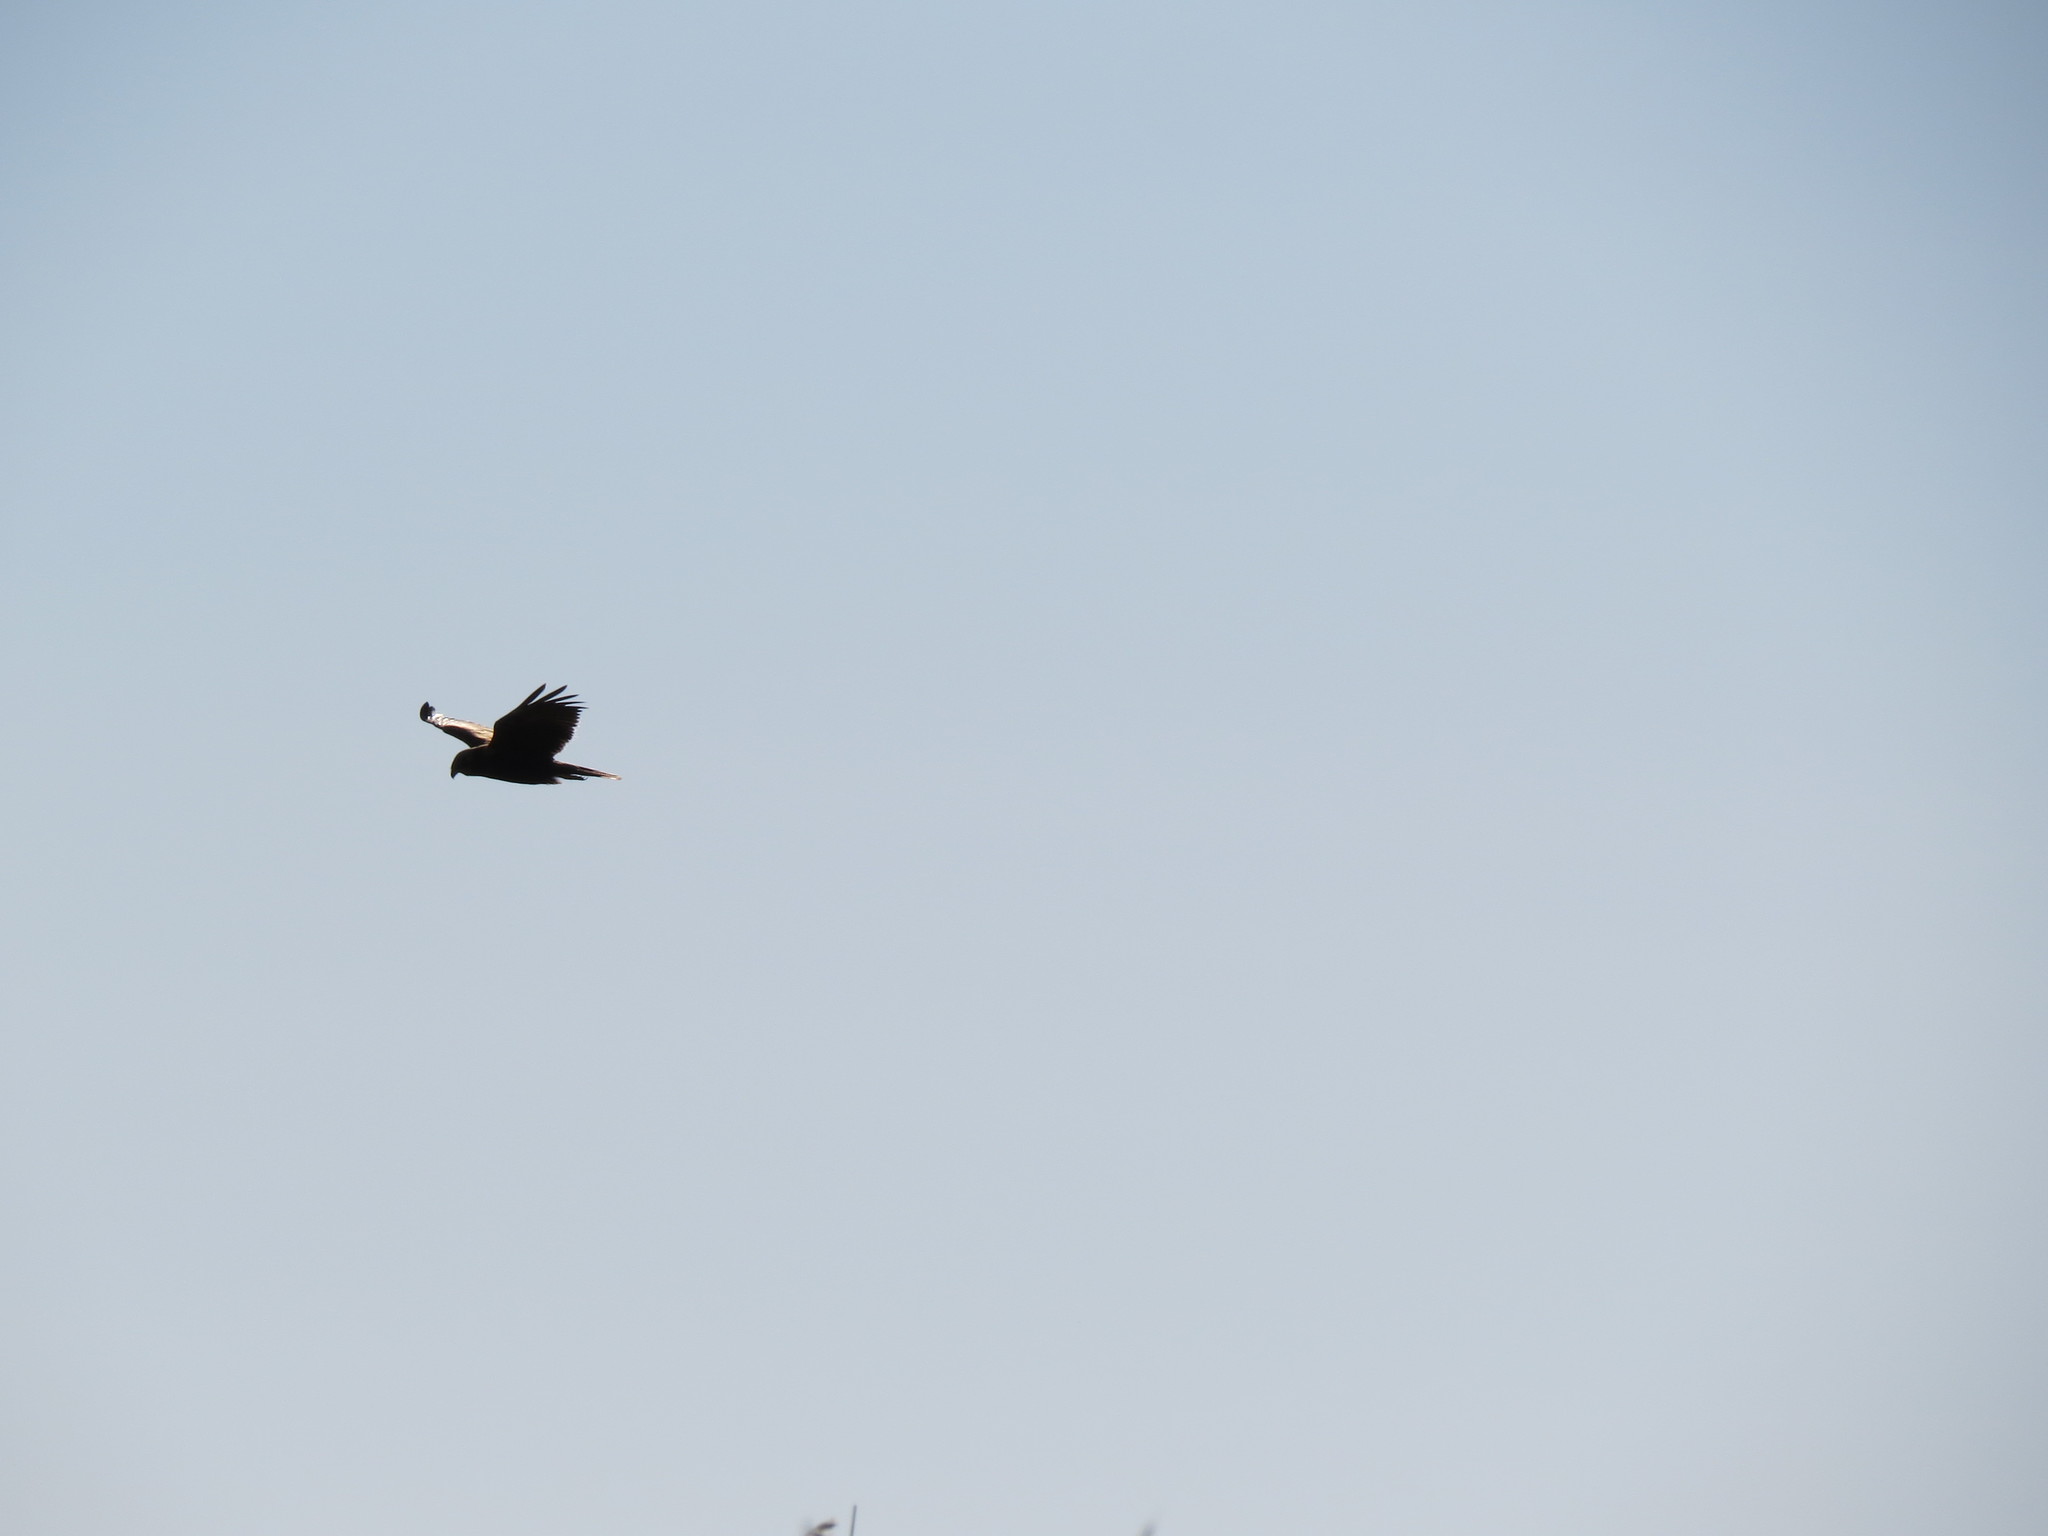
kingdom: Animalia
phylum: Chordata
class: Aves
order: Accipitriformes
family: Accipitridae
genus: Circus
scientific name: Circus aeruginosus
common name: Western marsh harrier
